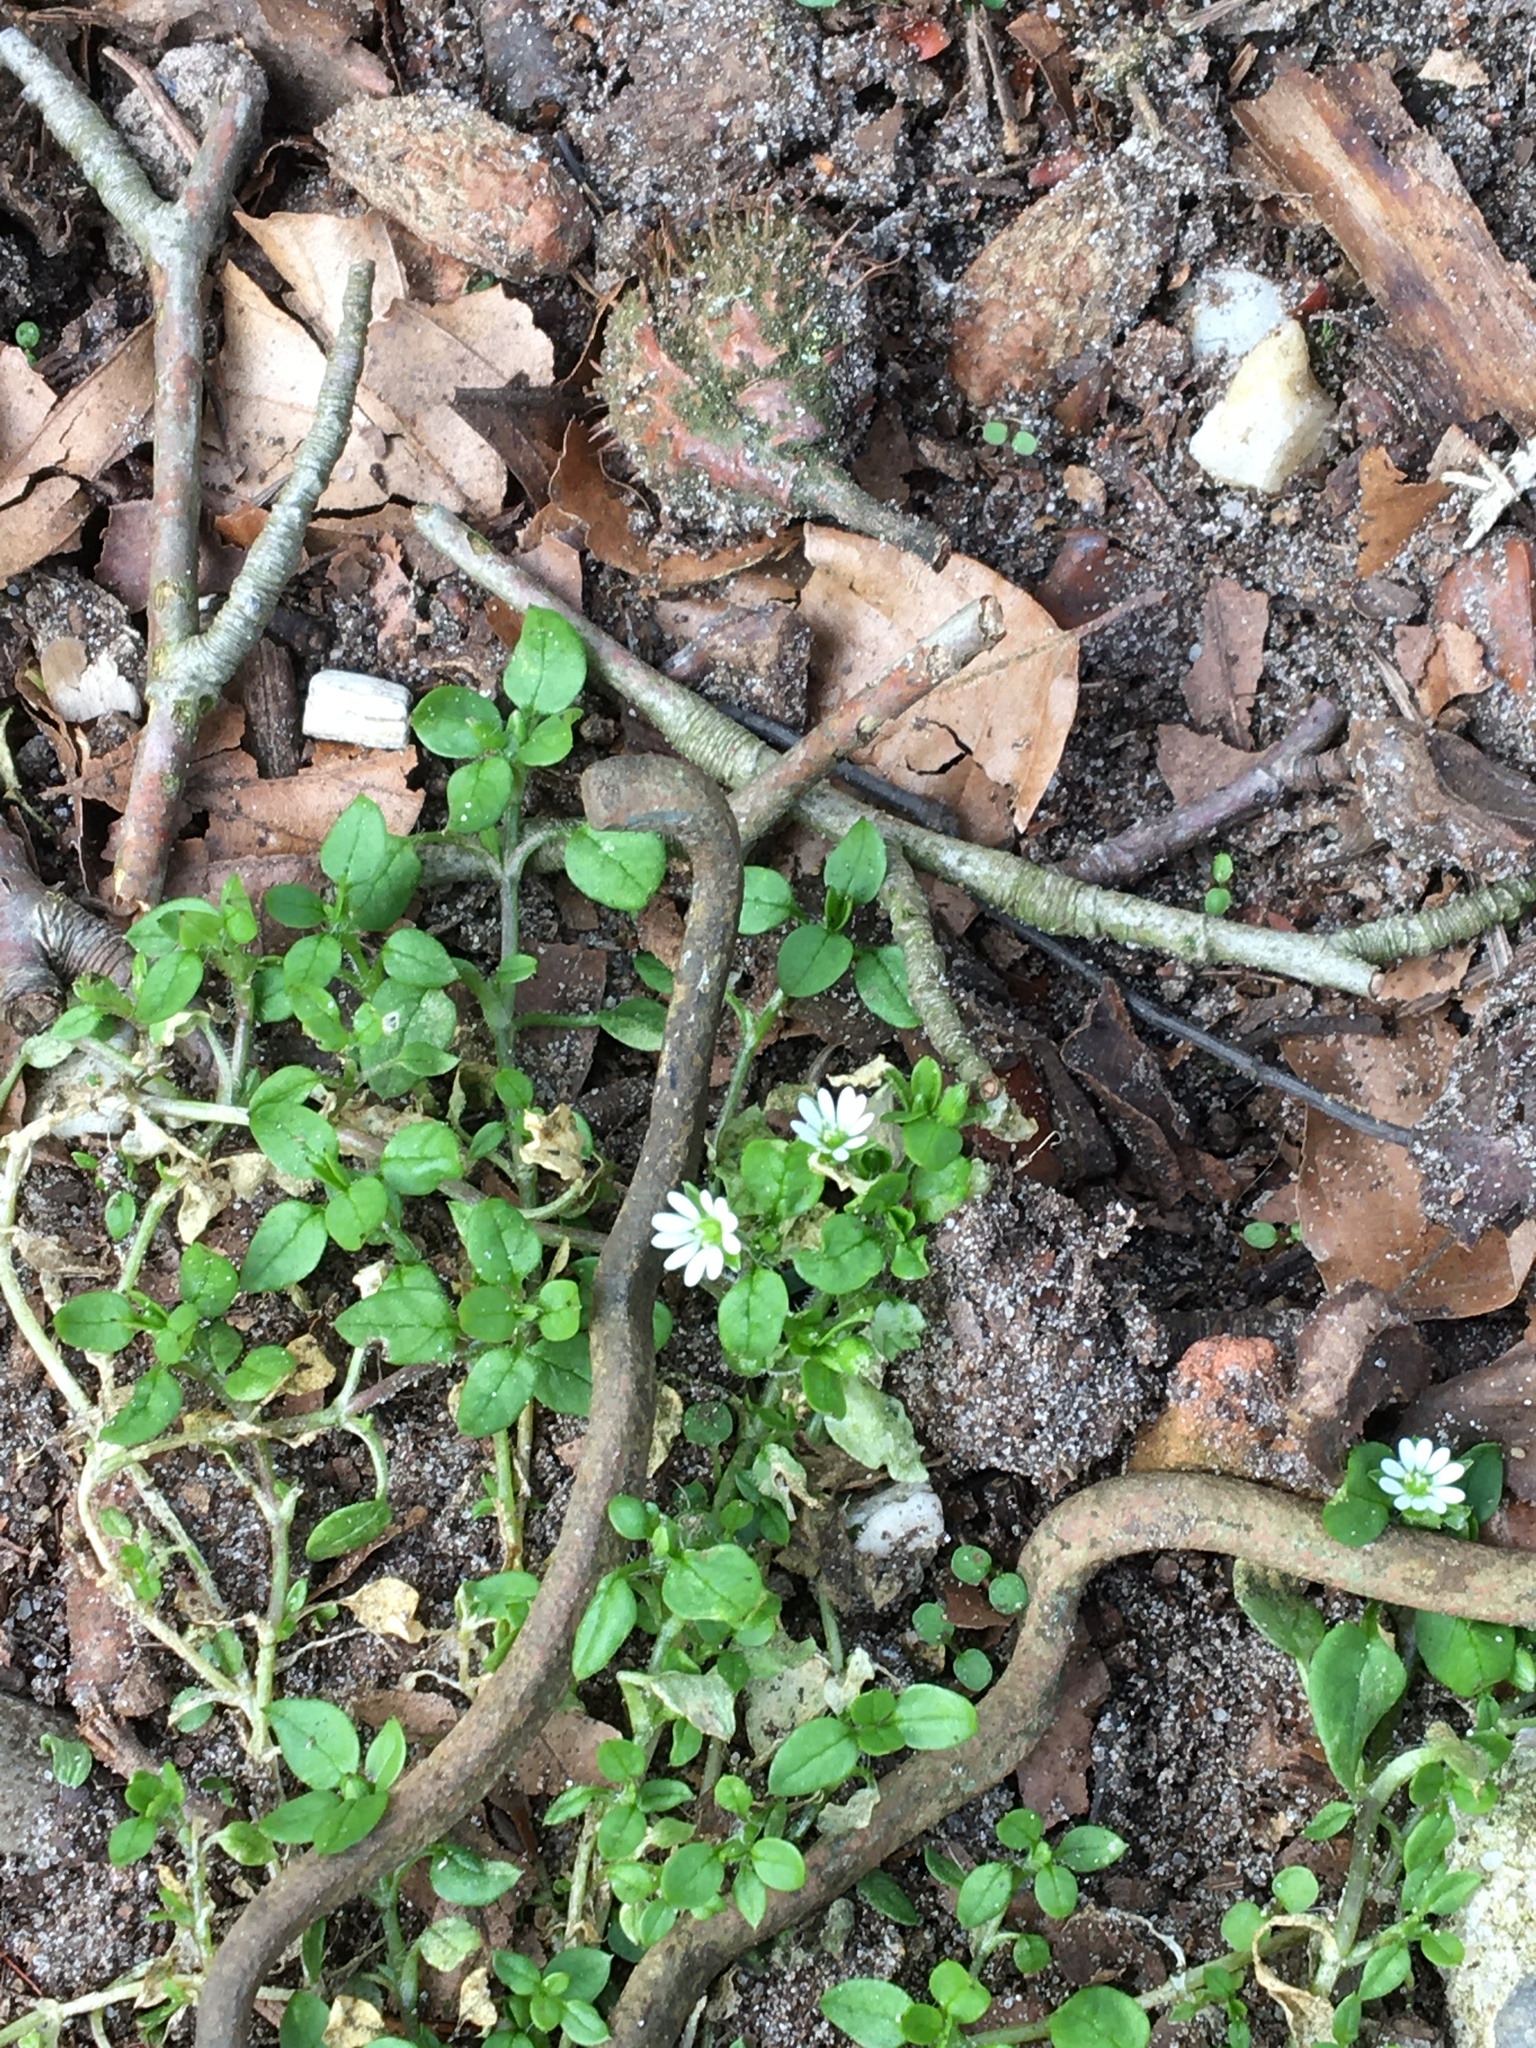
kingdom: Plantae
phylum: Tracheophyta
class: Magnoliopsida
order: Caryophyllales
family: Caryophyllaceae
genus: Stellaria
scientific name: Stellaria media
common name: Common chickweed
